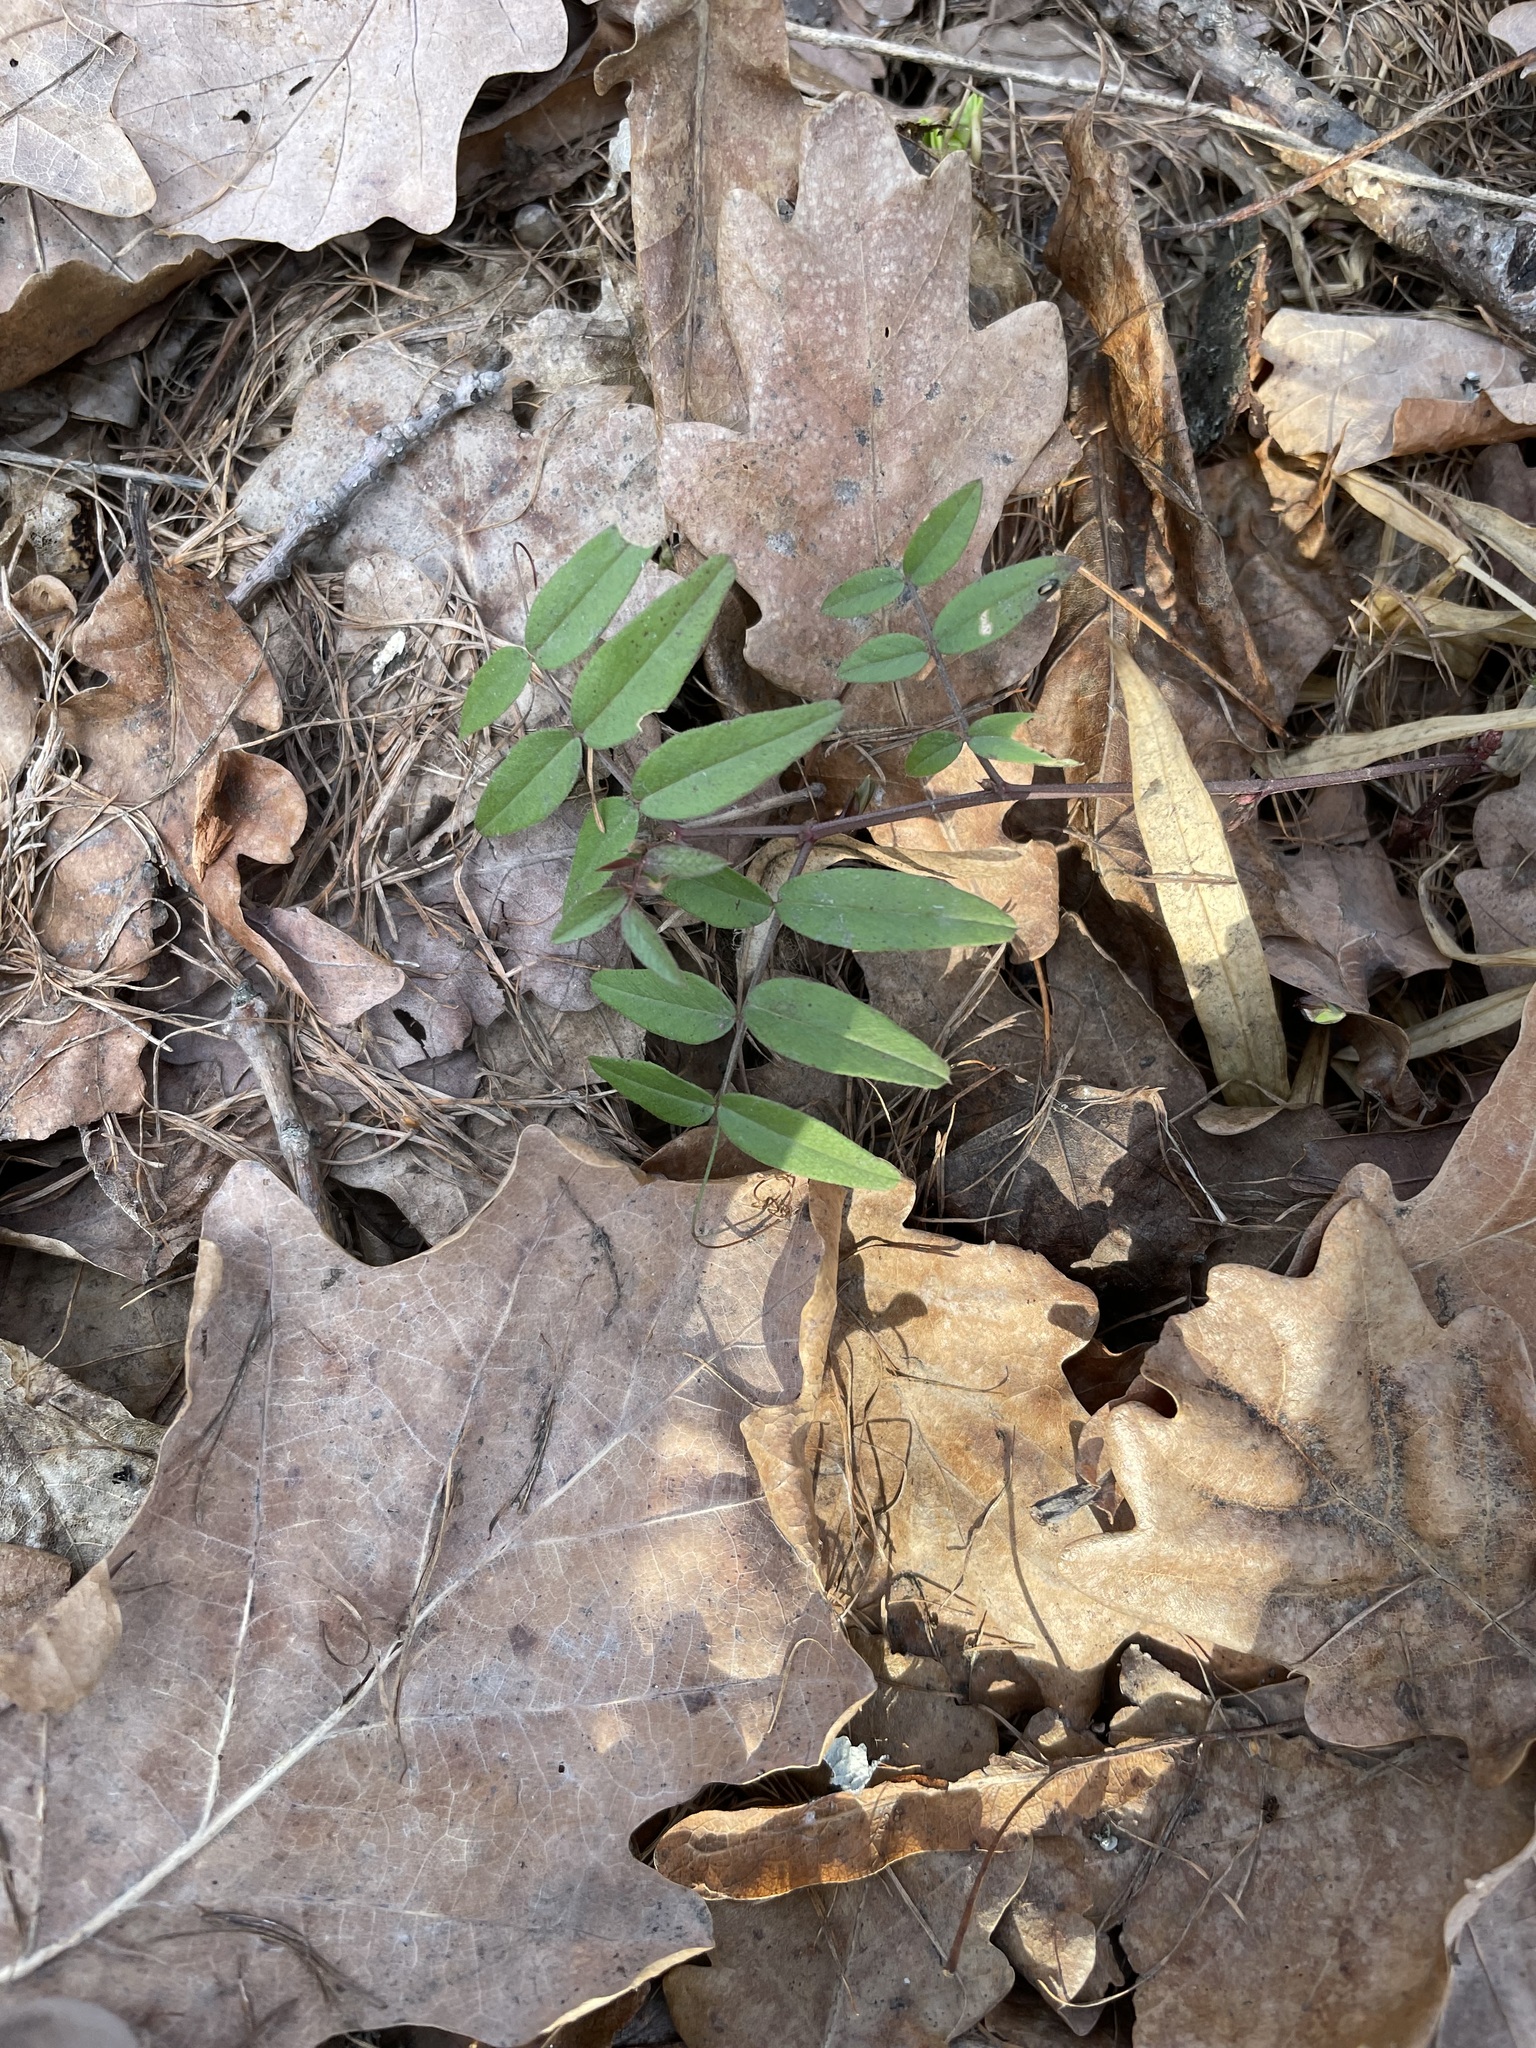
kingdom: Plantae
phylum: Tracheophyta
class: Magnoliopsida
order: Fabales
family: Fabaceae
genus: Vicia
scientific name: Vicia sepium
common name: Bush vetch
